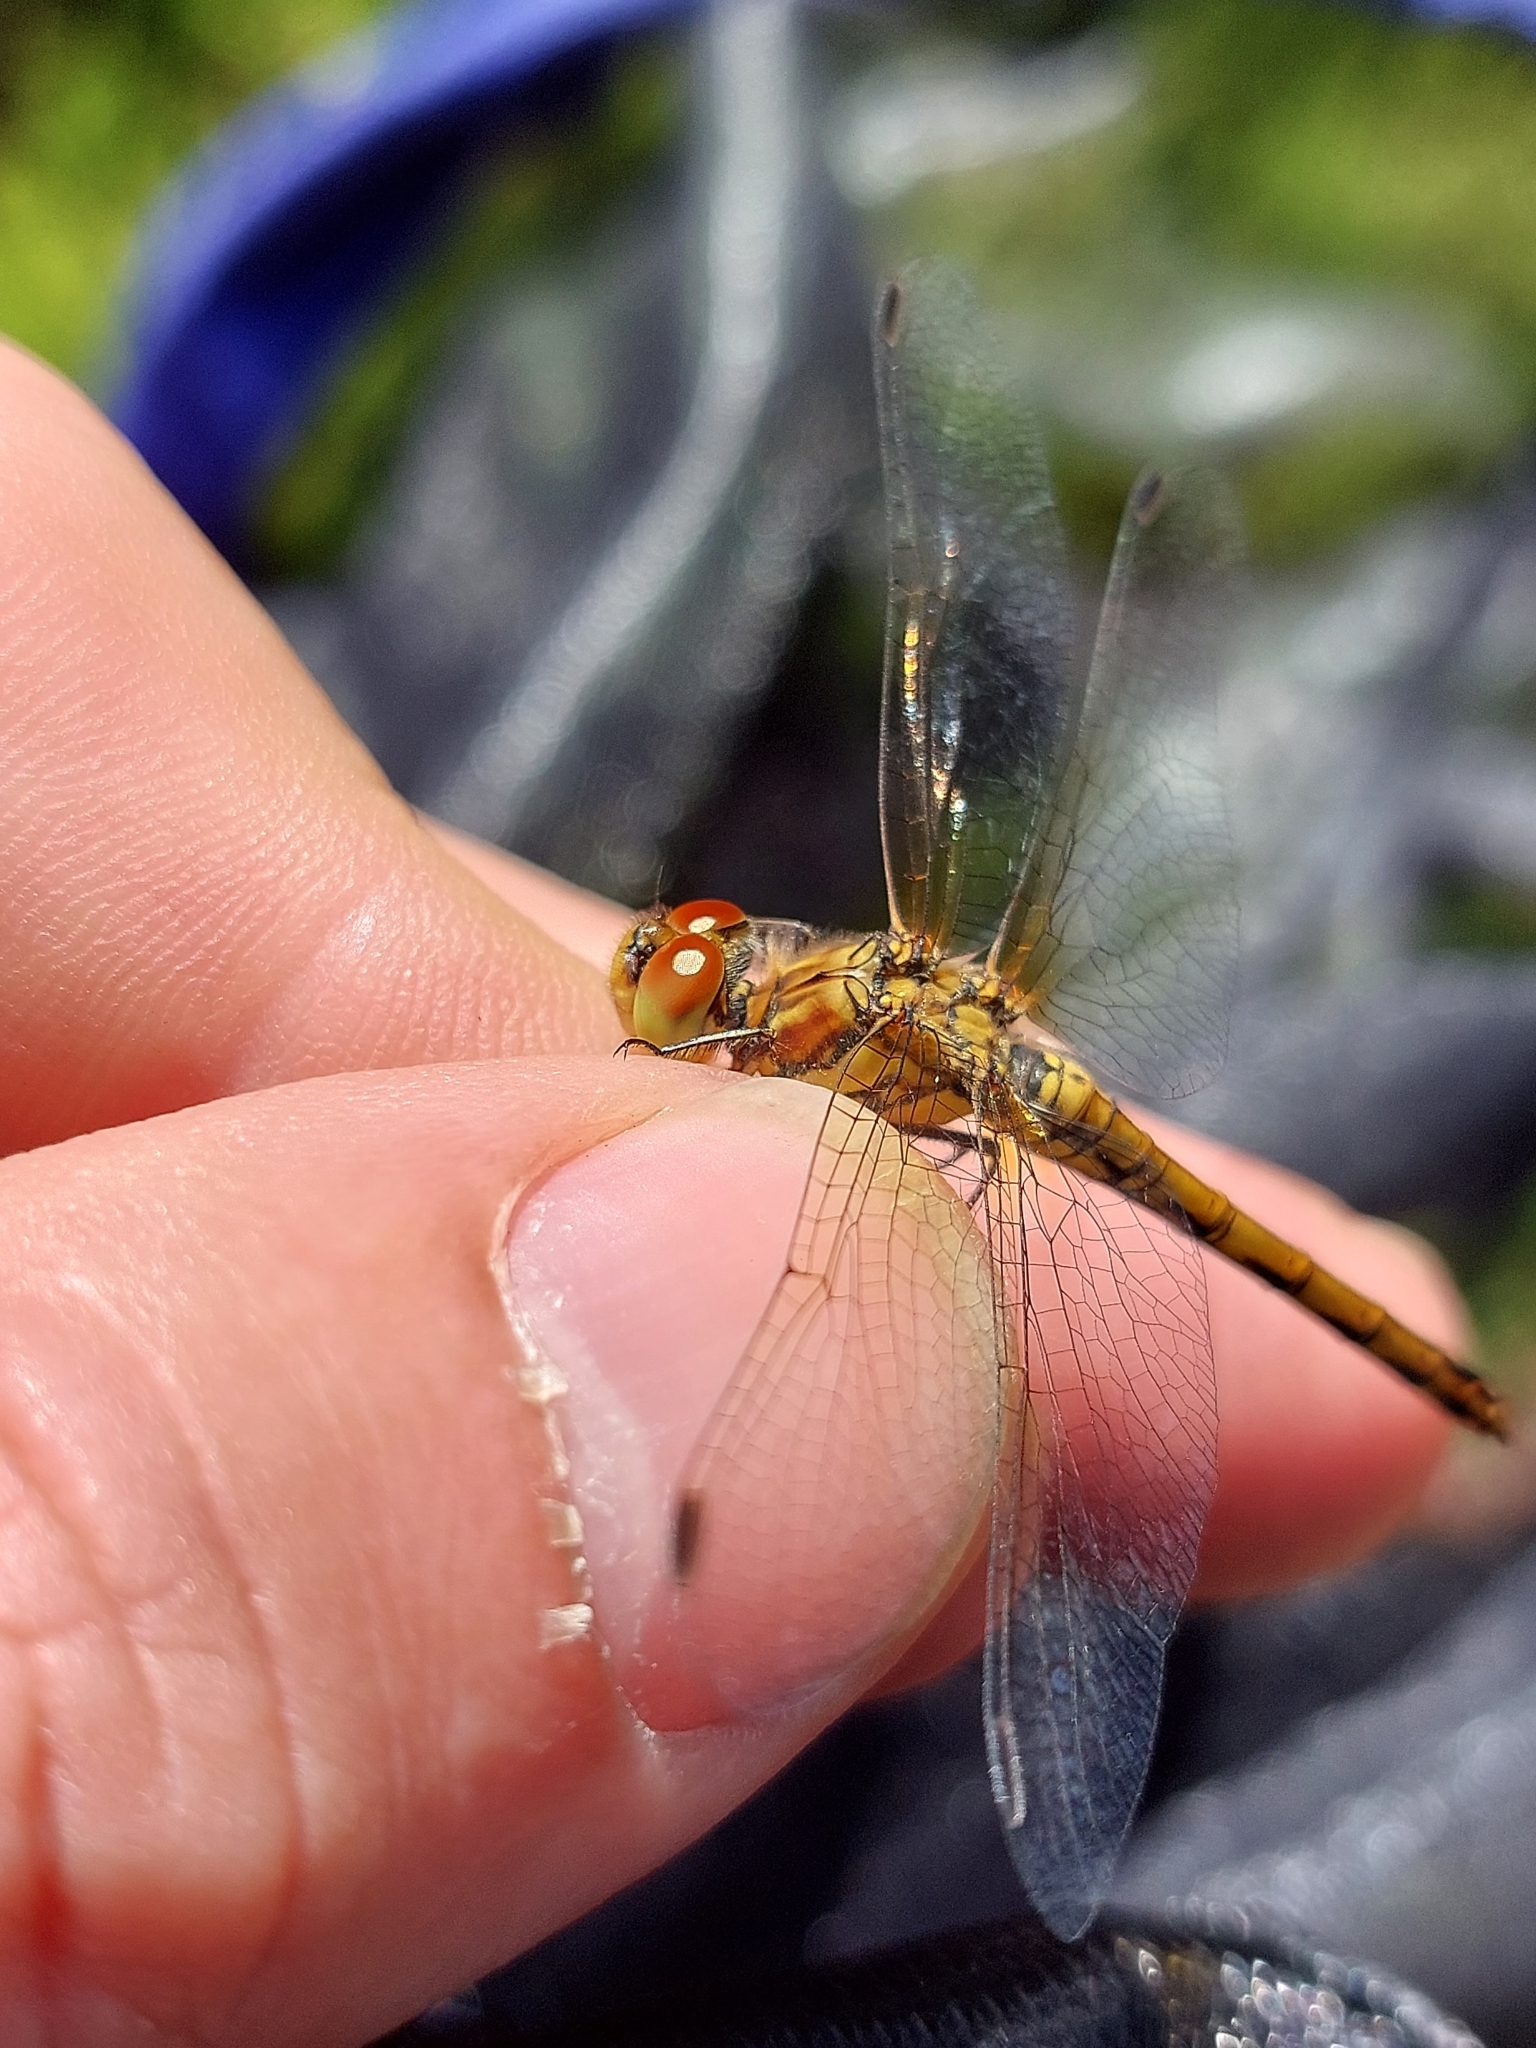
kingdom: Animalia
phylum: Arthropoda
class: Insecta
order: Odonata
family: Libellulidae
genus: Sympetrum
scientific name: Sympetrum striolatum
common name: Common darter
